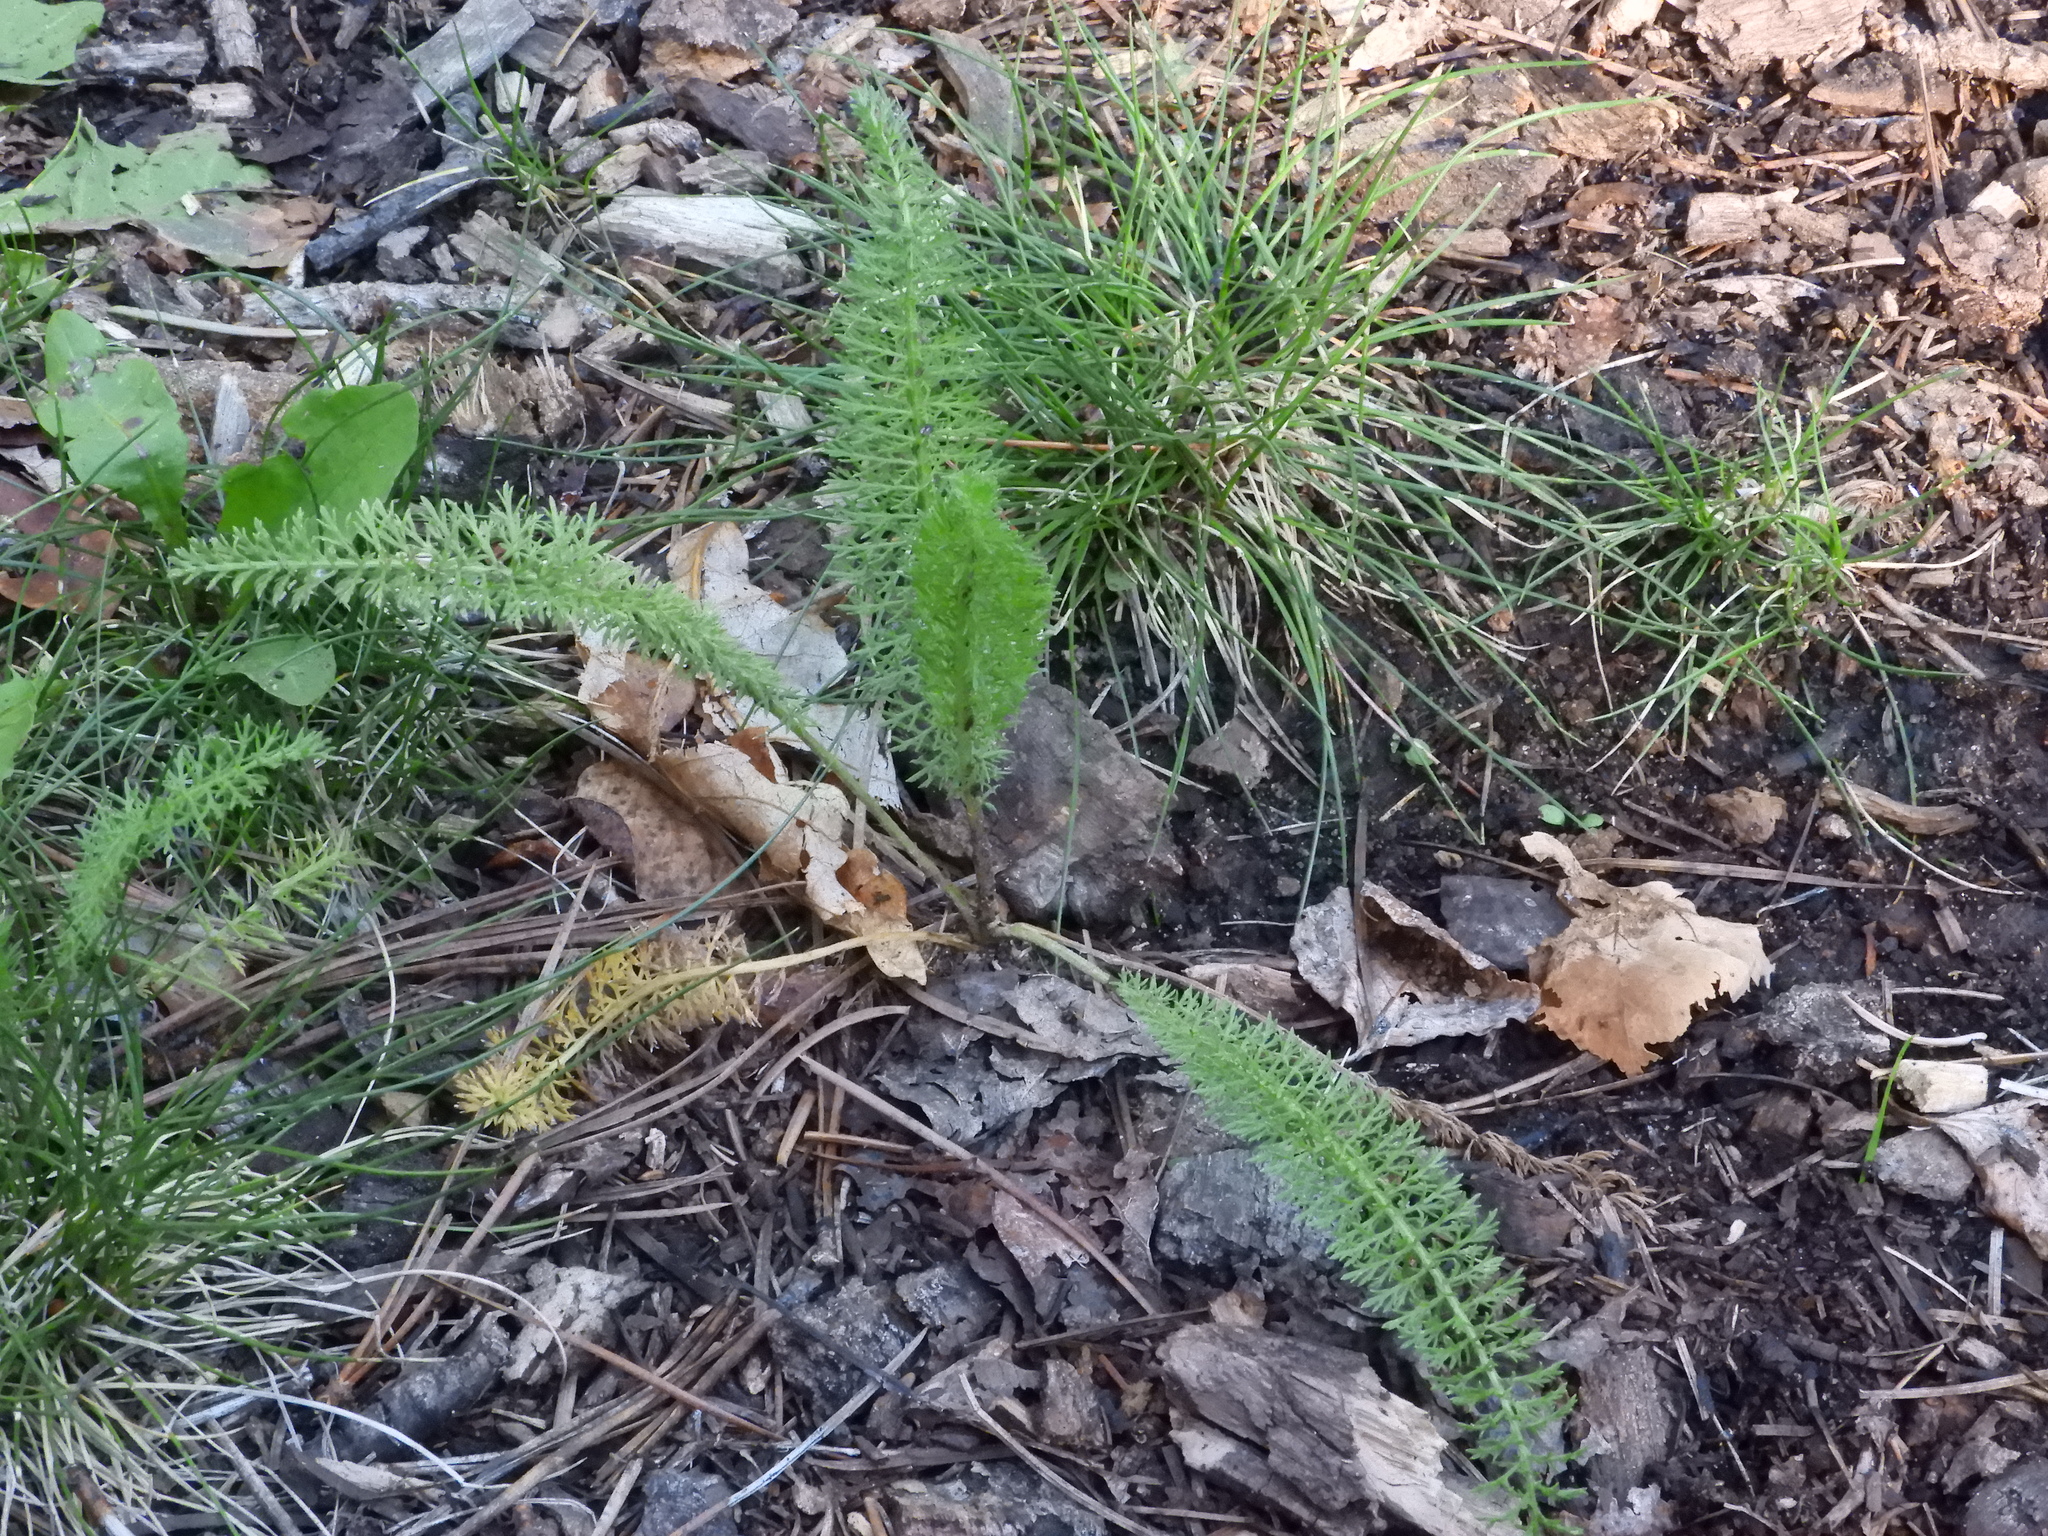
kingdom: Plantae
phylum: Tracheophyta
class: Magnoliopsida
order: Asterales
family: Asteraceae
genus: Achillea
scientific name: Achillea millefolium
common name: Yarrow
